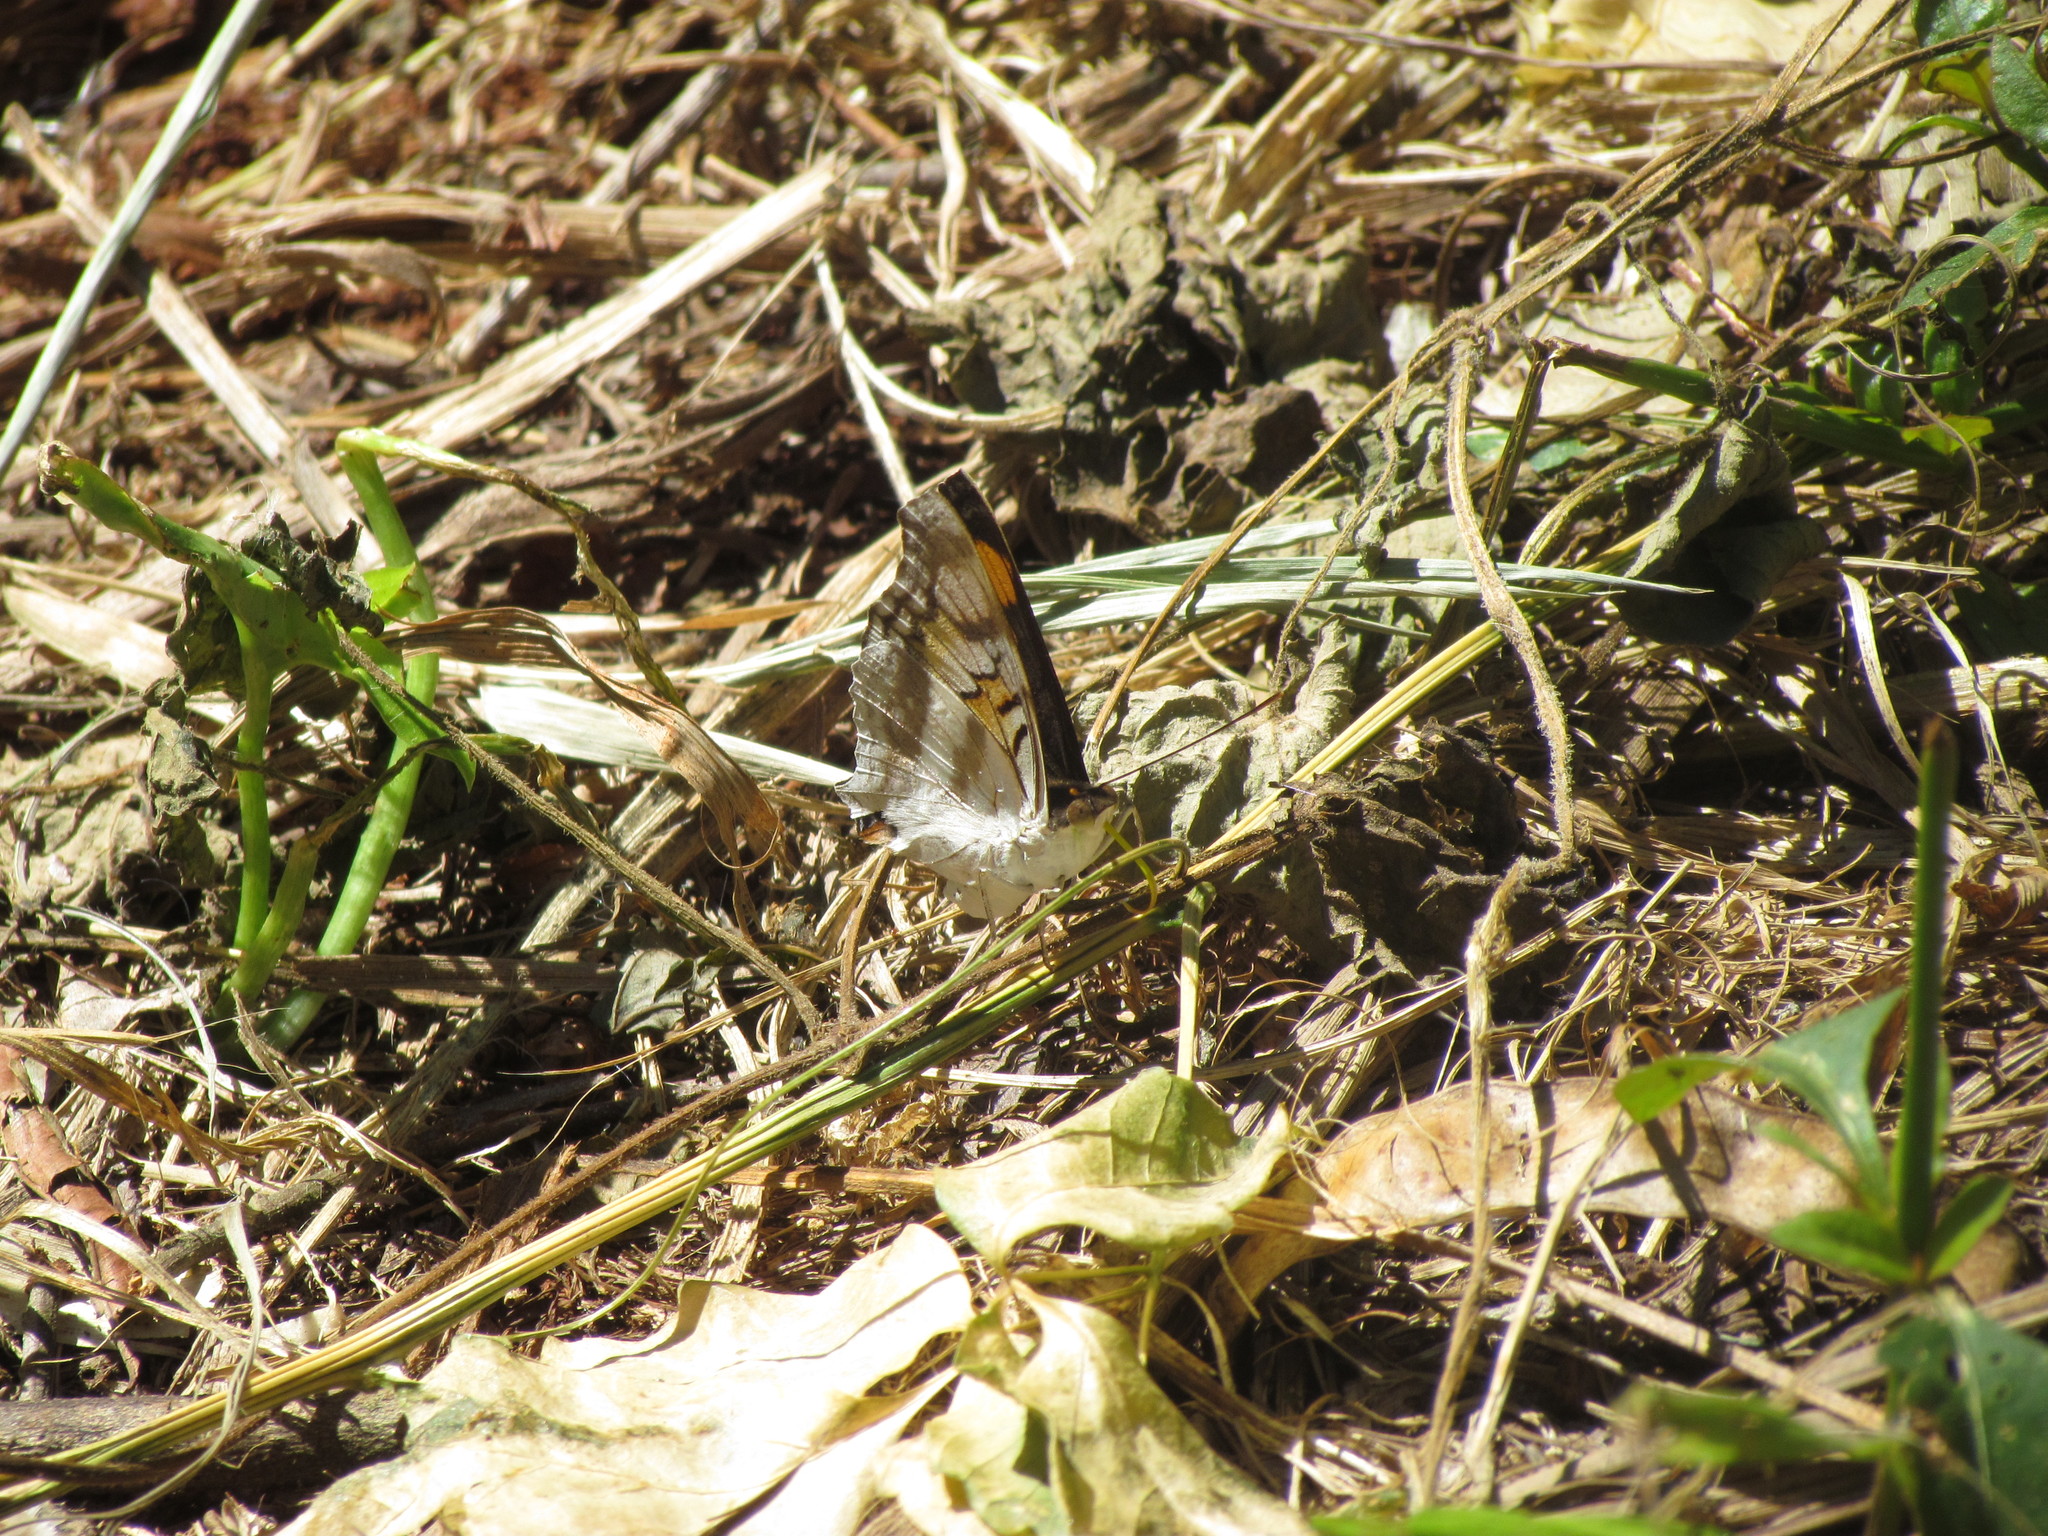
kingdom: Animalia
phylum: Arthropoda
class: Insecta
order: Lepidoptera
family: Nymphalidae
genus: Doxocopa
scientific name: Doxocopa linda
